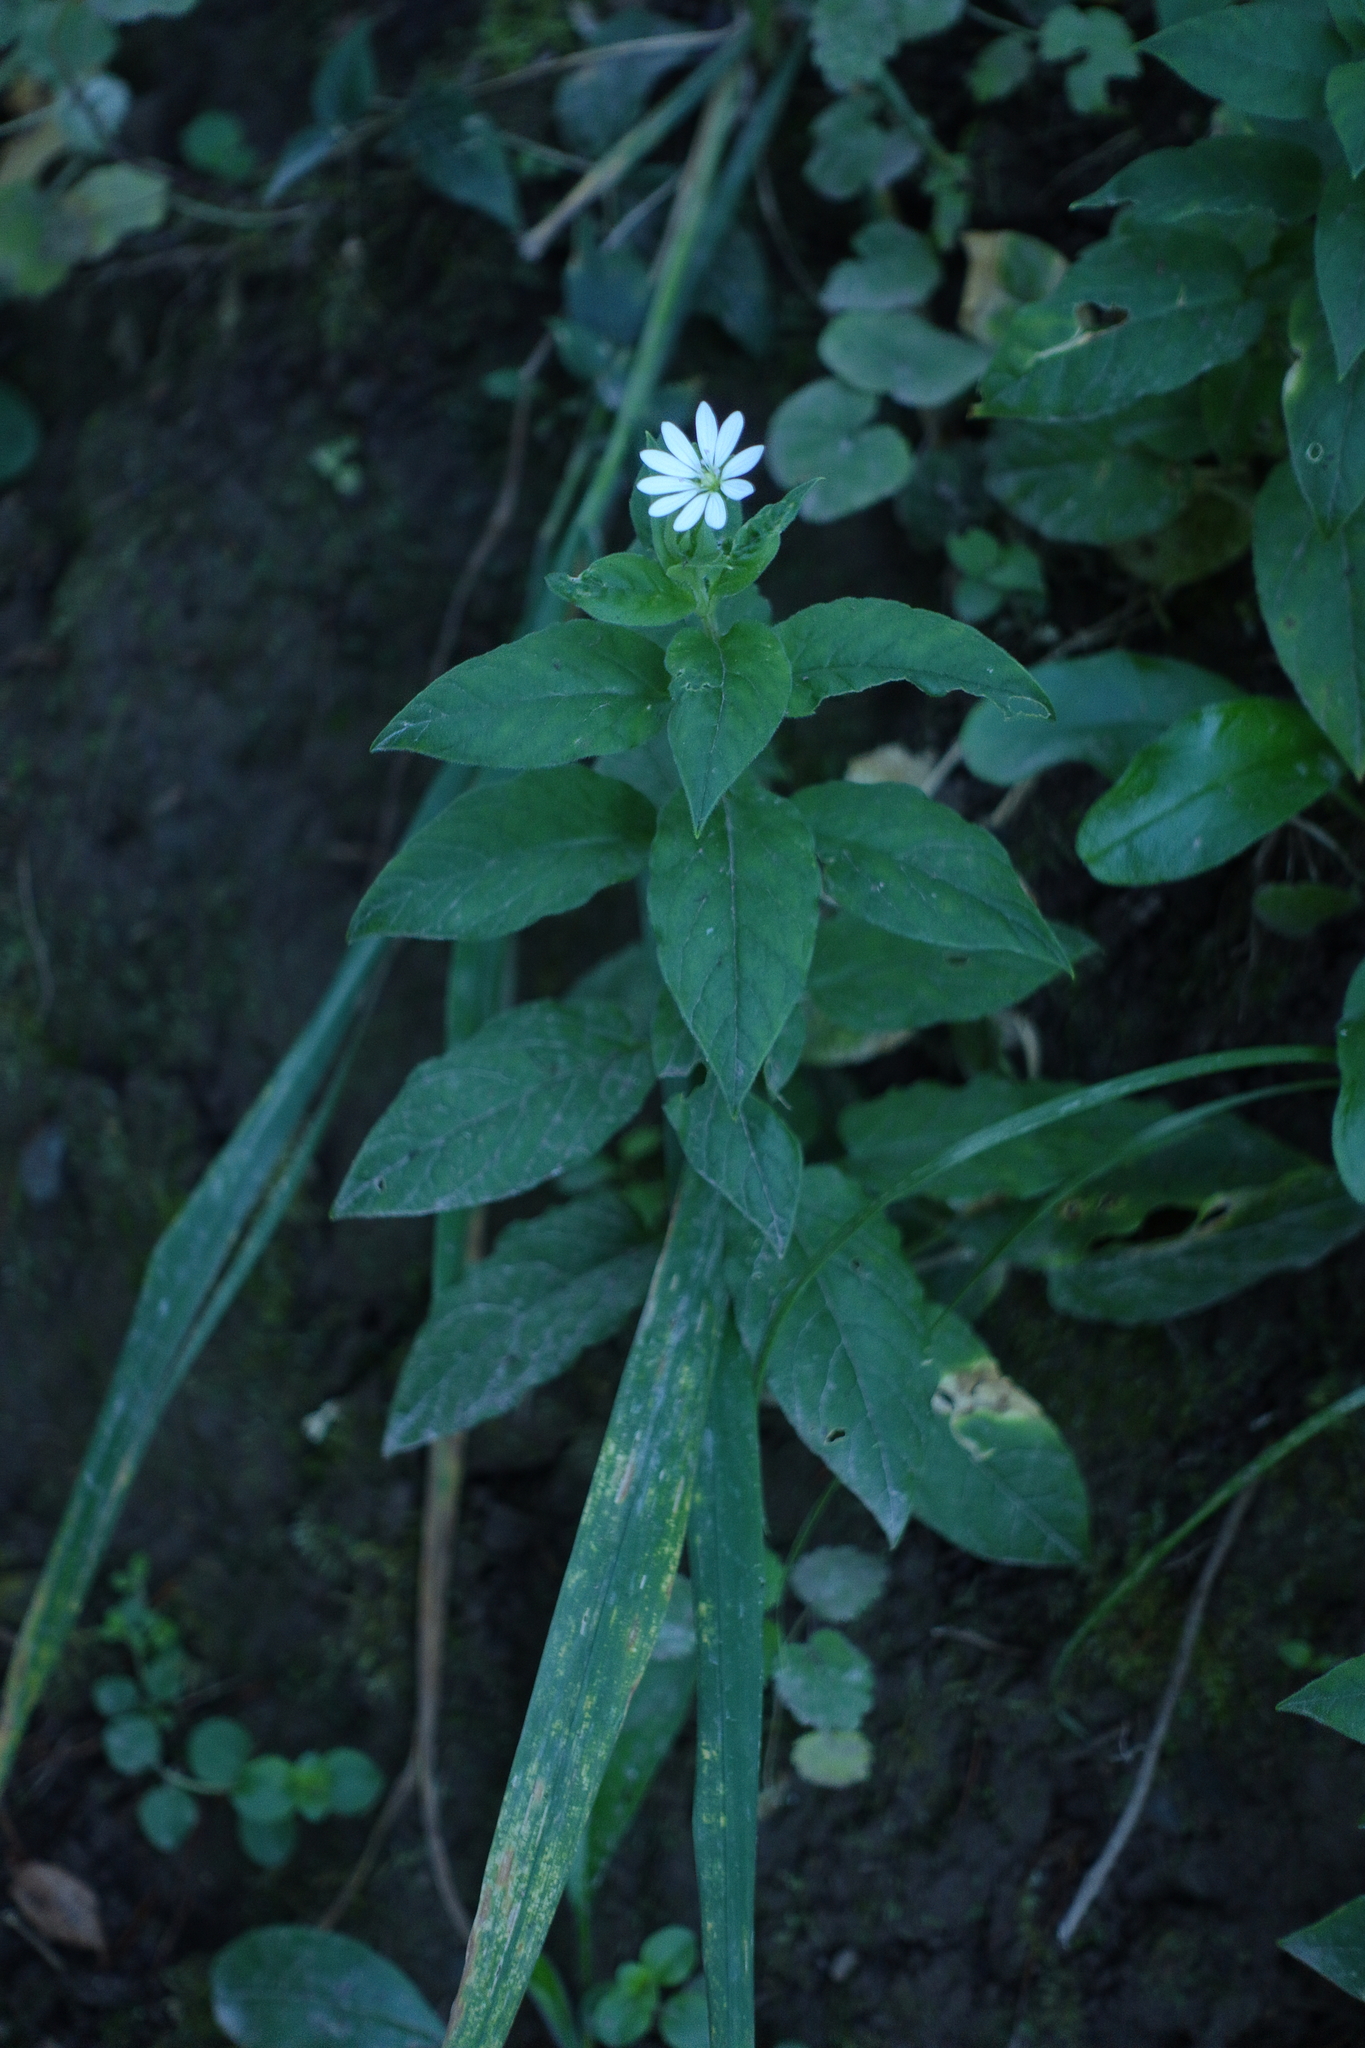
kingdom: Plantae
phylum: Tracheophyta
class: Magnoliopsida
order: Caryophyllales
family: Caryophyllaceae
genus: Stellaria
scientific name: Stellaria bungeana
